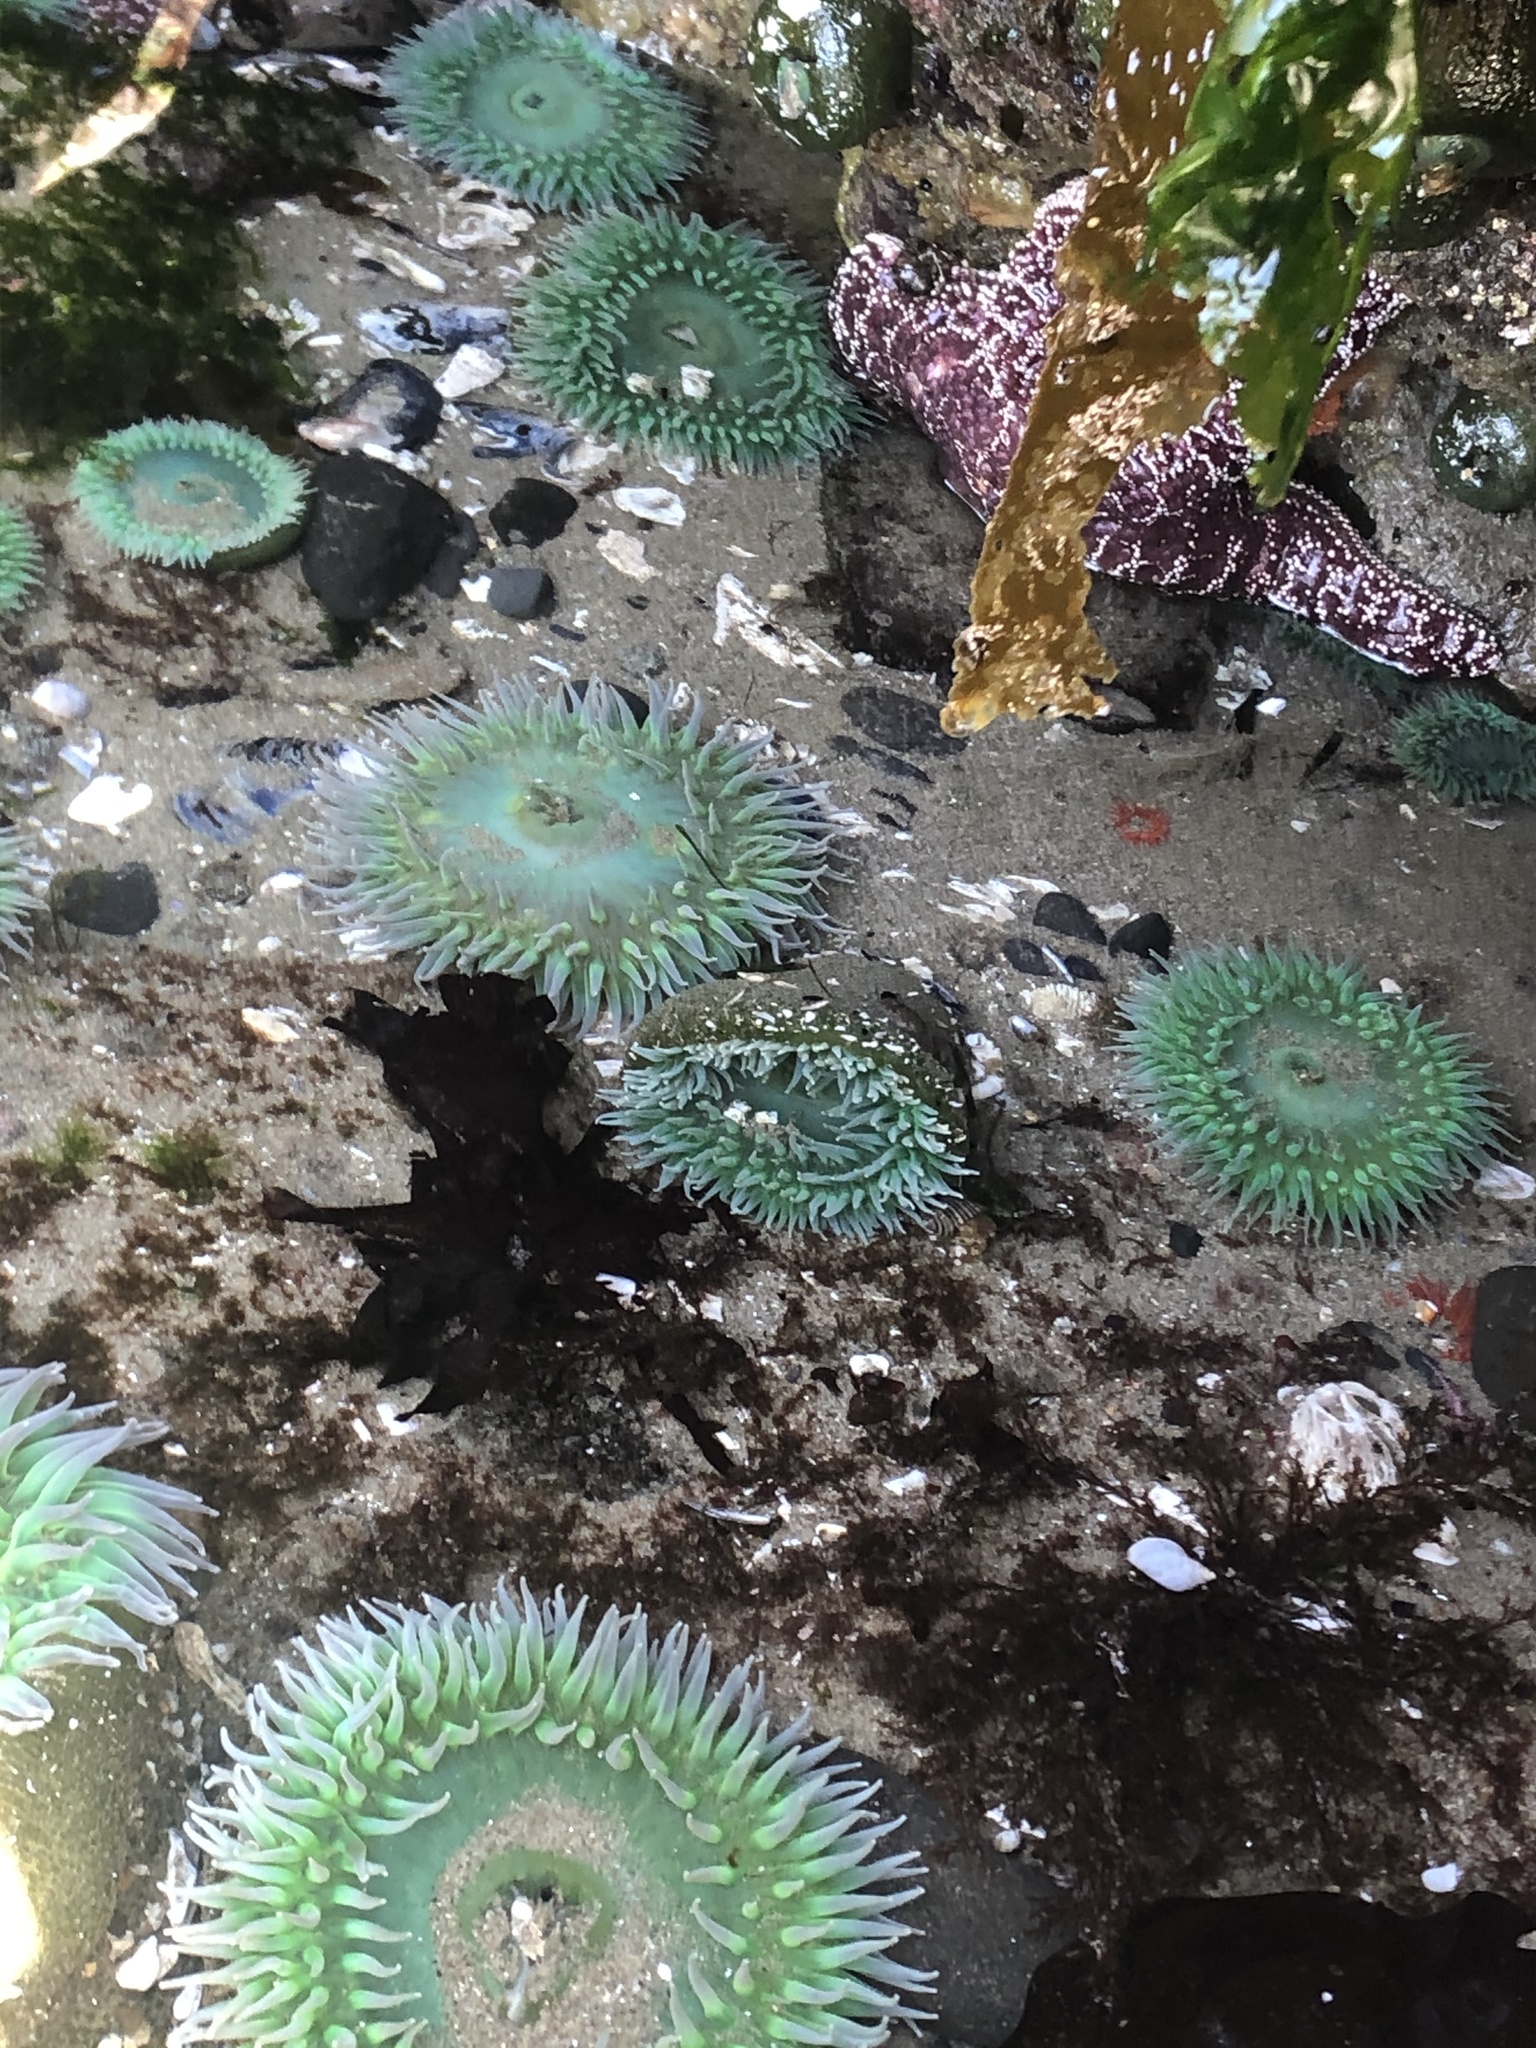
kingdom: Animalia
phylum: Cnidaria
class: Anthozoa
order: Actiniaria
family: Actiniidae
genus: Anthopleura
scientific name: Anthopleura xanthogrammica
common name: Giant green anemone
